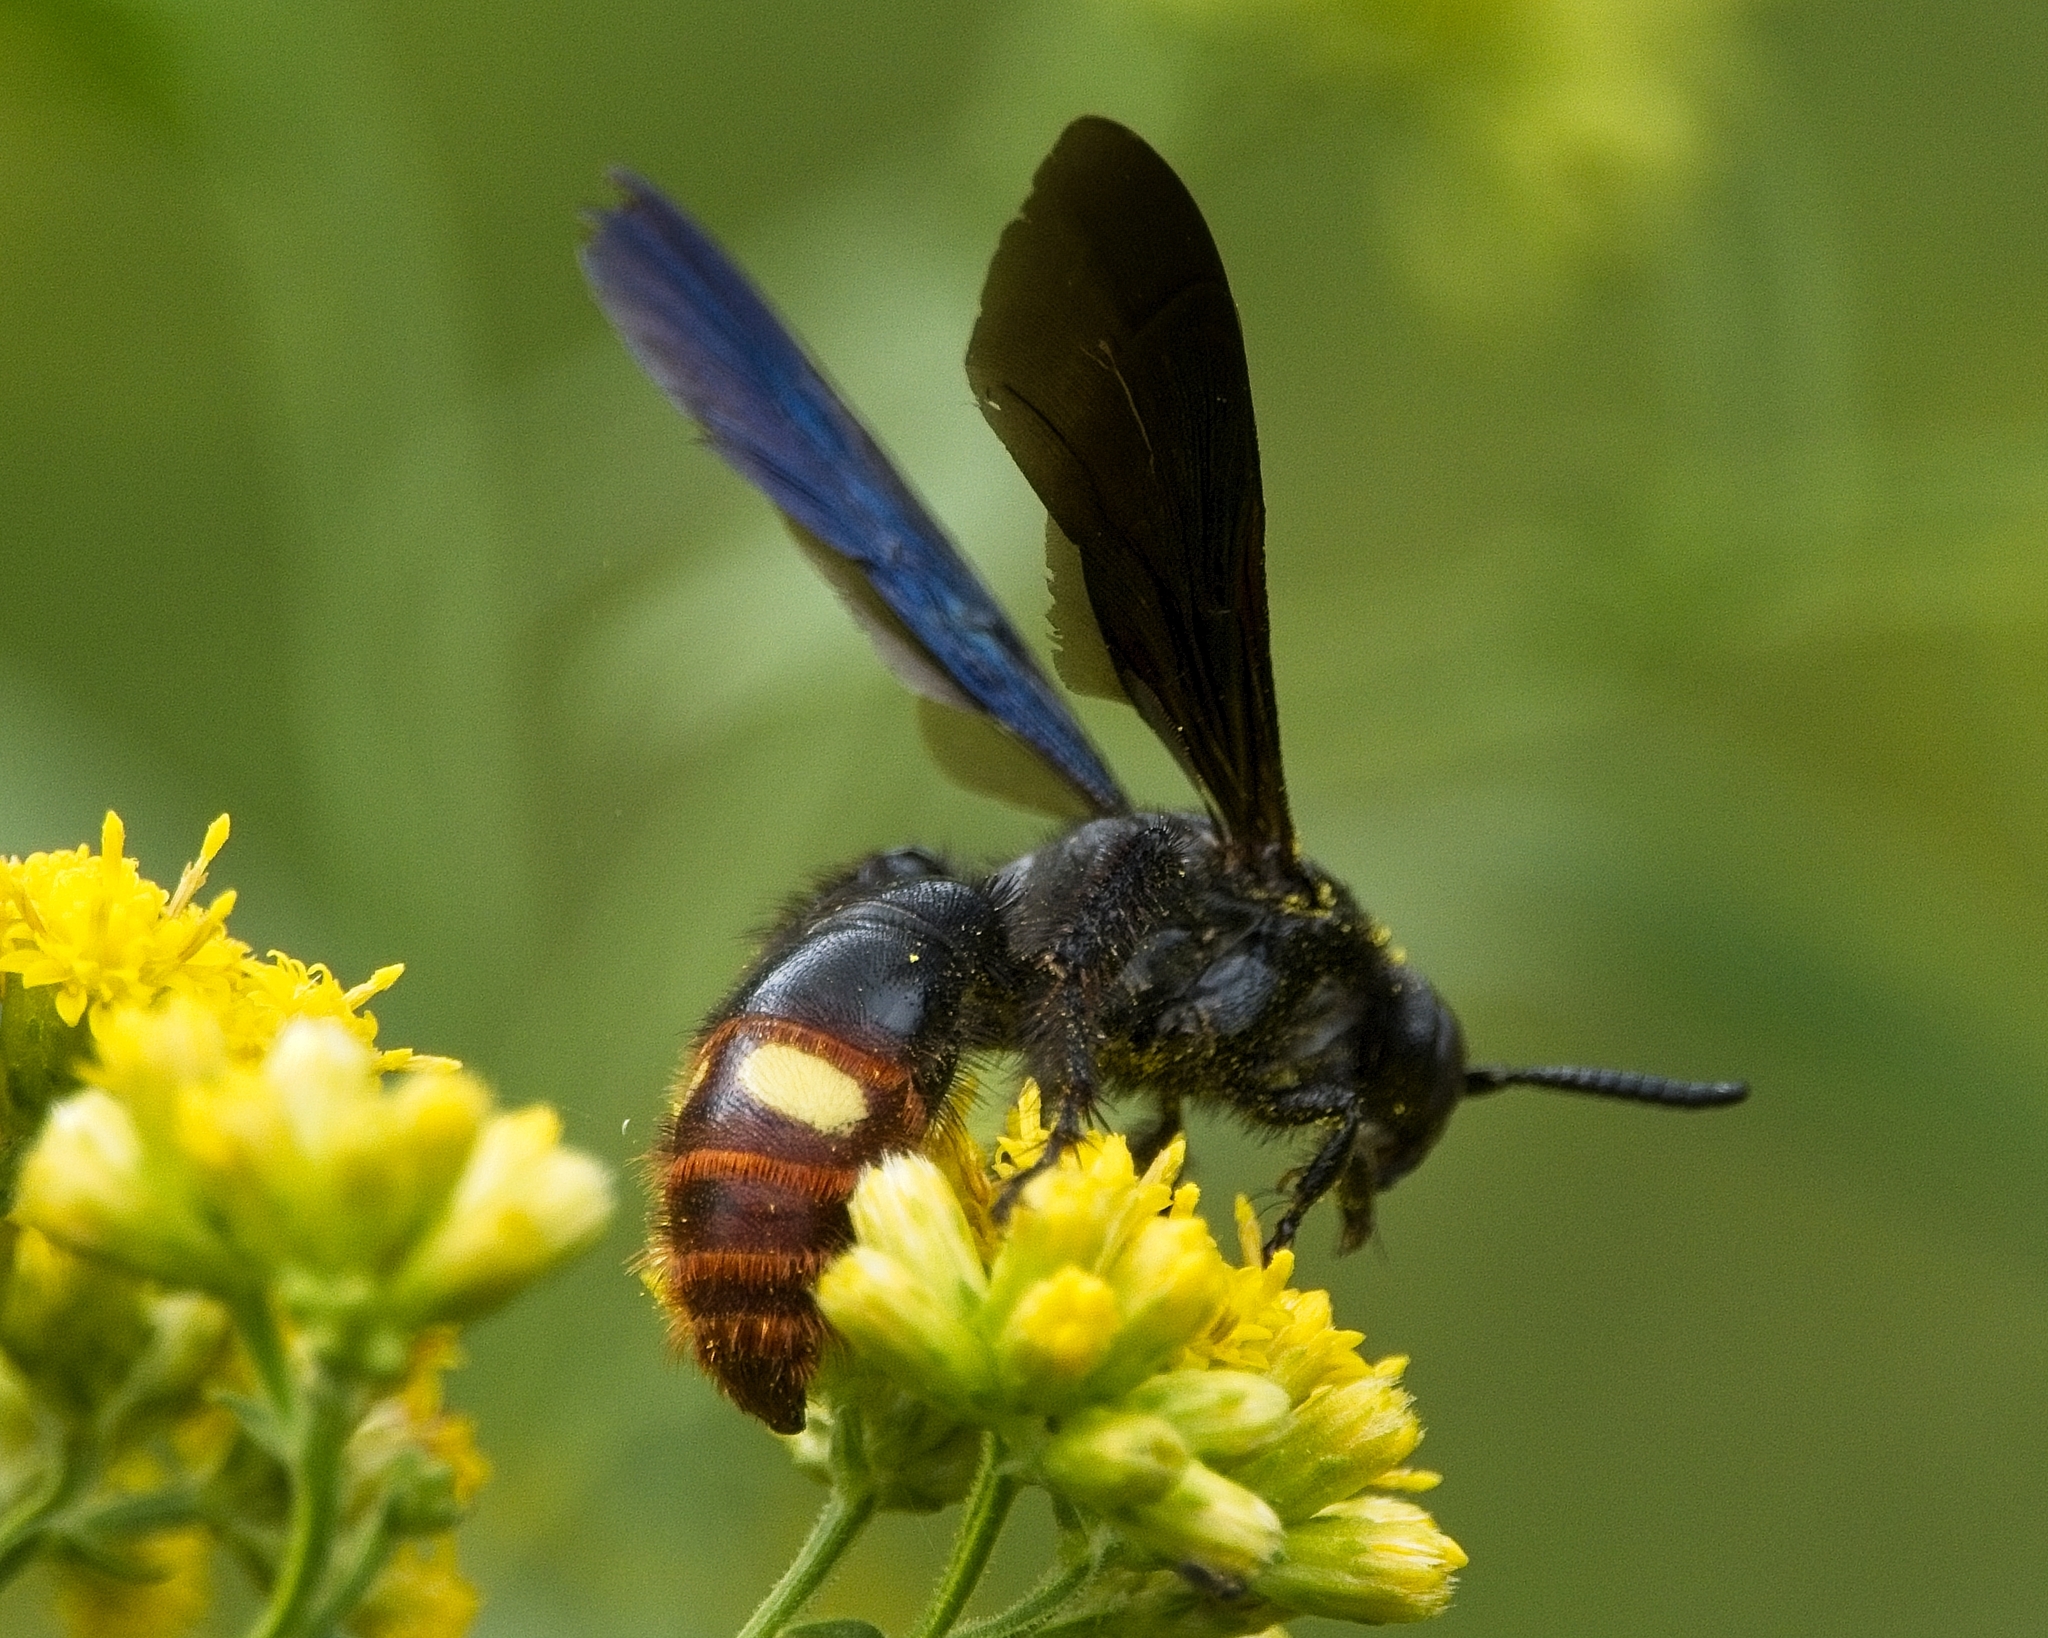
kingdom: Animalia
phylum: Arthropoda
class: Insecta
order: Hymenoptera
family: Scoliidae
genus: Scolia
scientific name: Scolia dubia
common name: Blue-winged scoliid wasp
